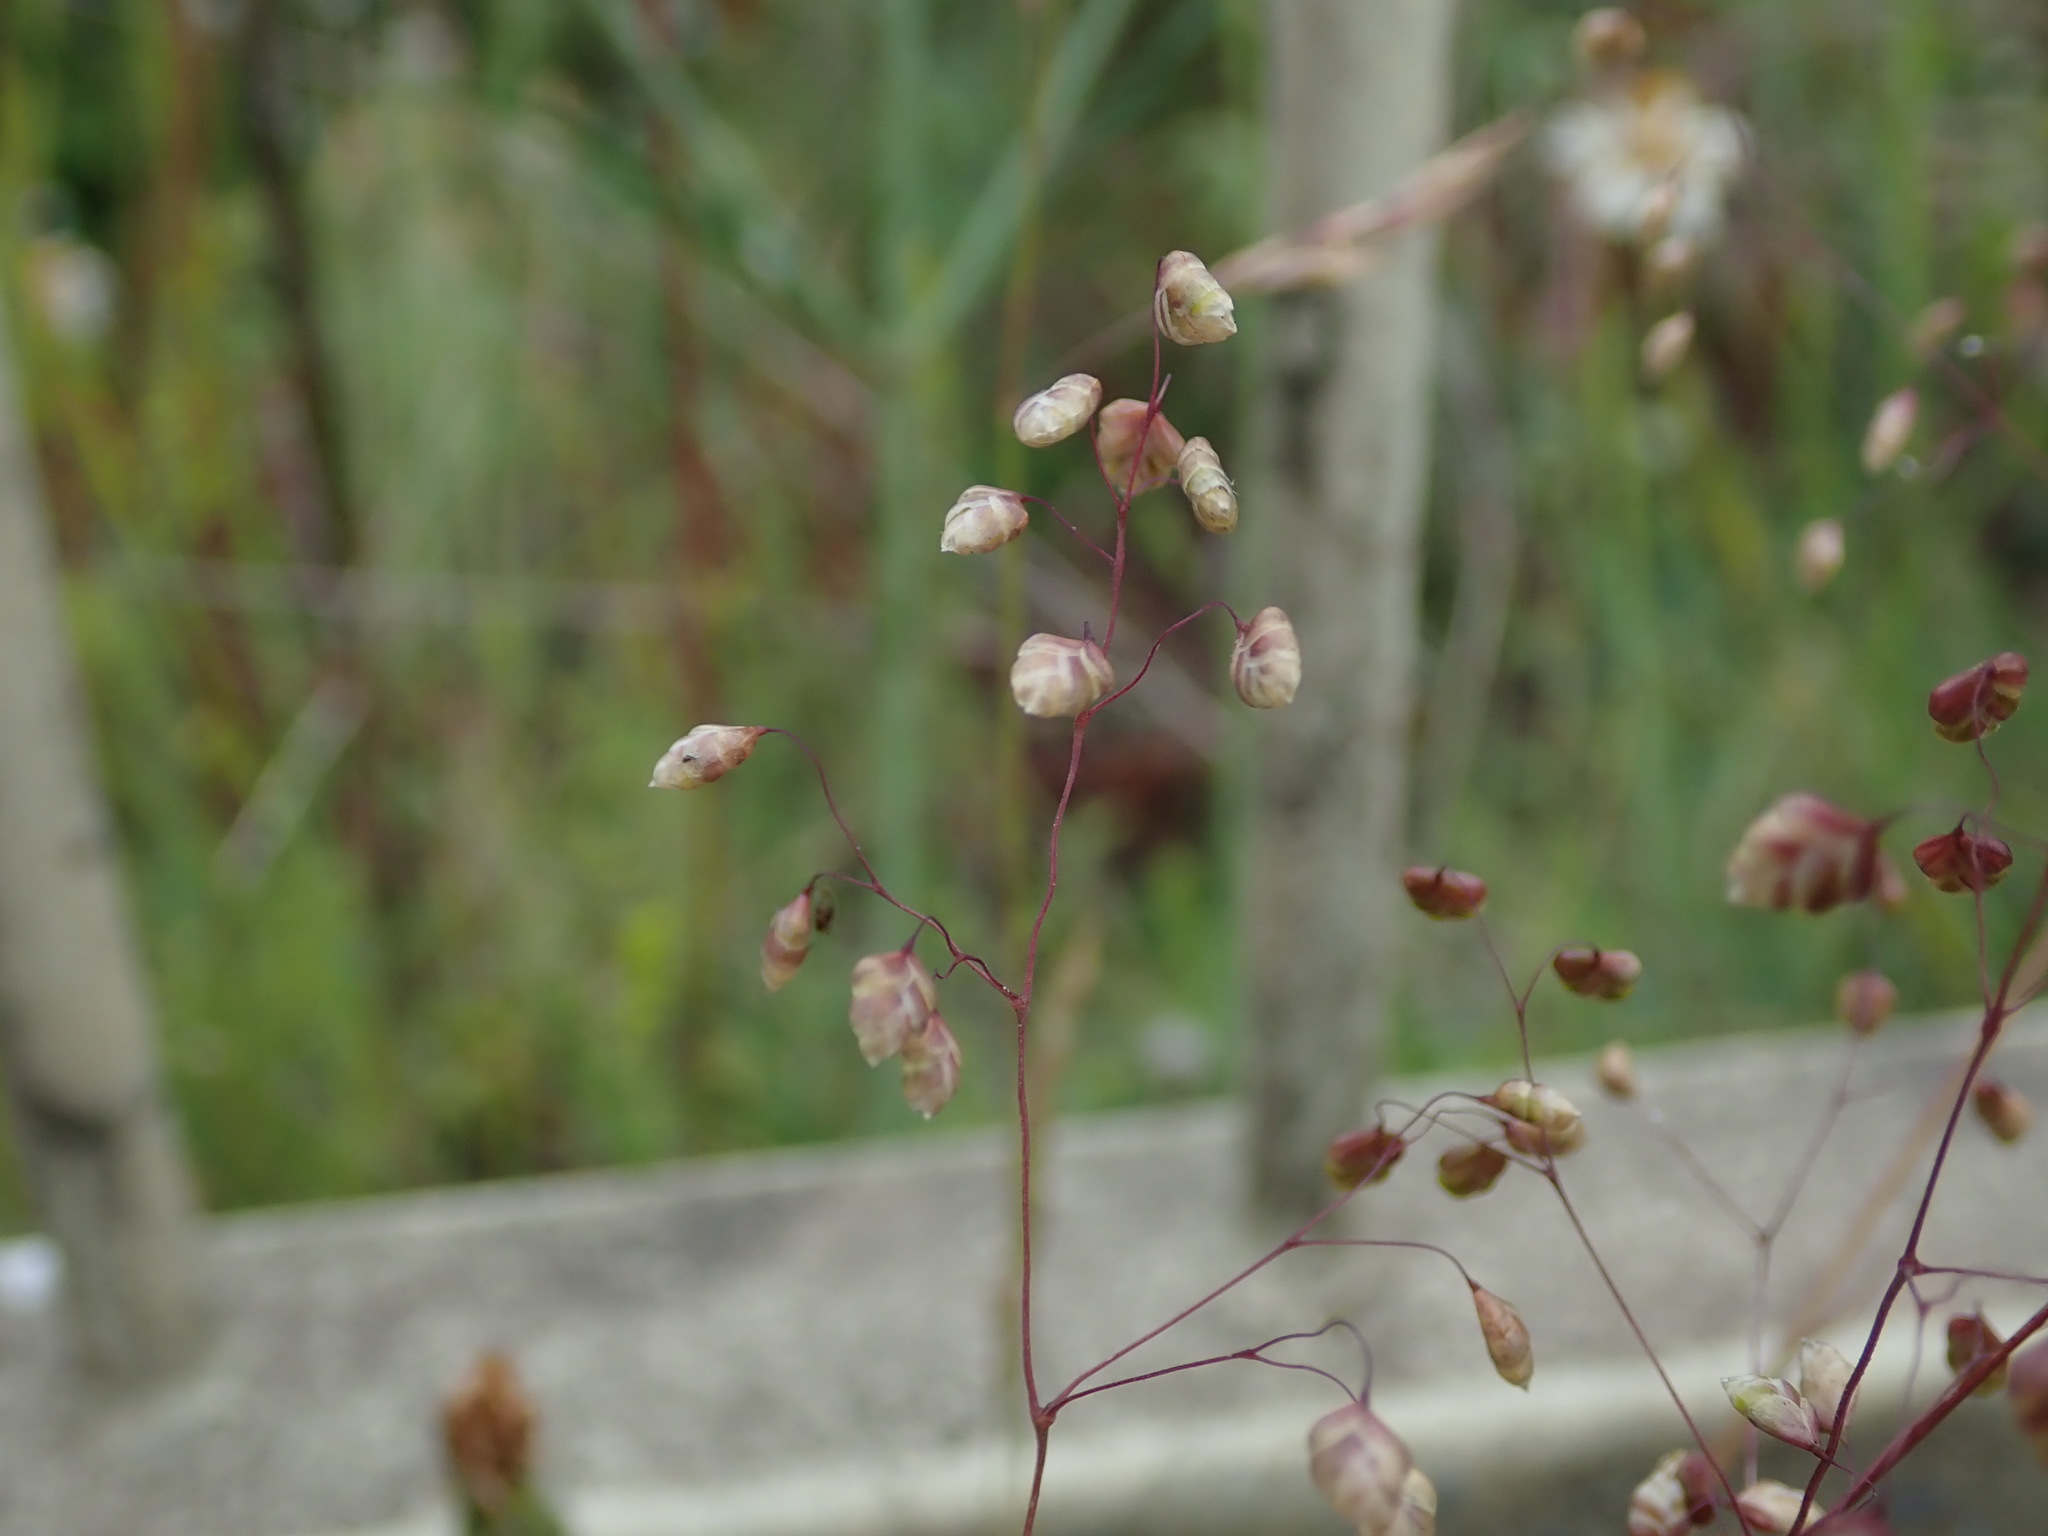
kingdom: Plantae
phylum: Tracheophyta
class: Liliopsida
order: Poales
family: Poaceae
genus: Briza
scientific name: Briza media
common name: Quaking grass
